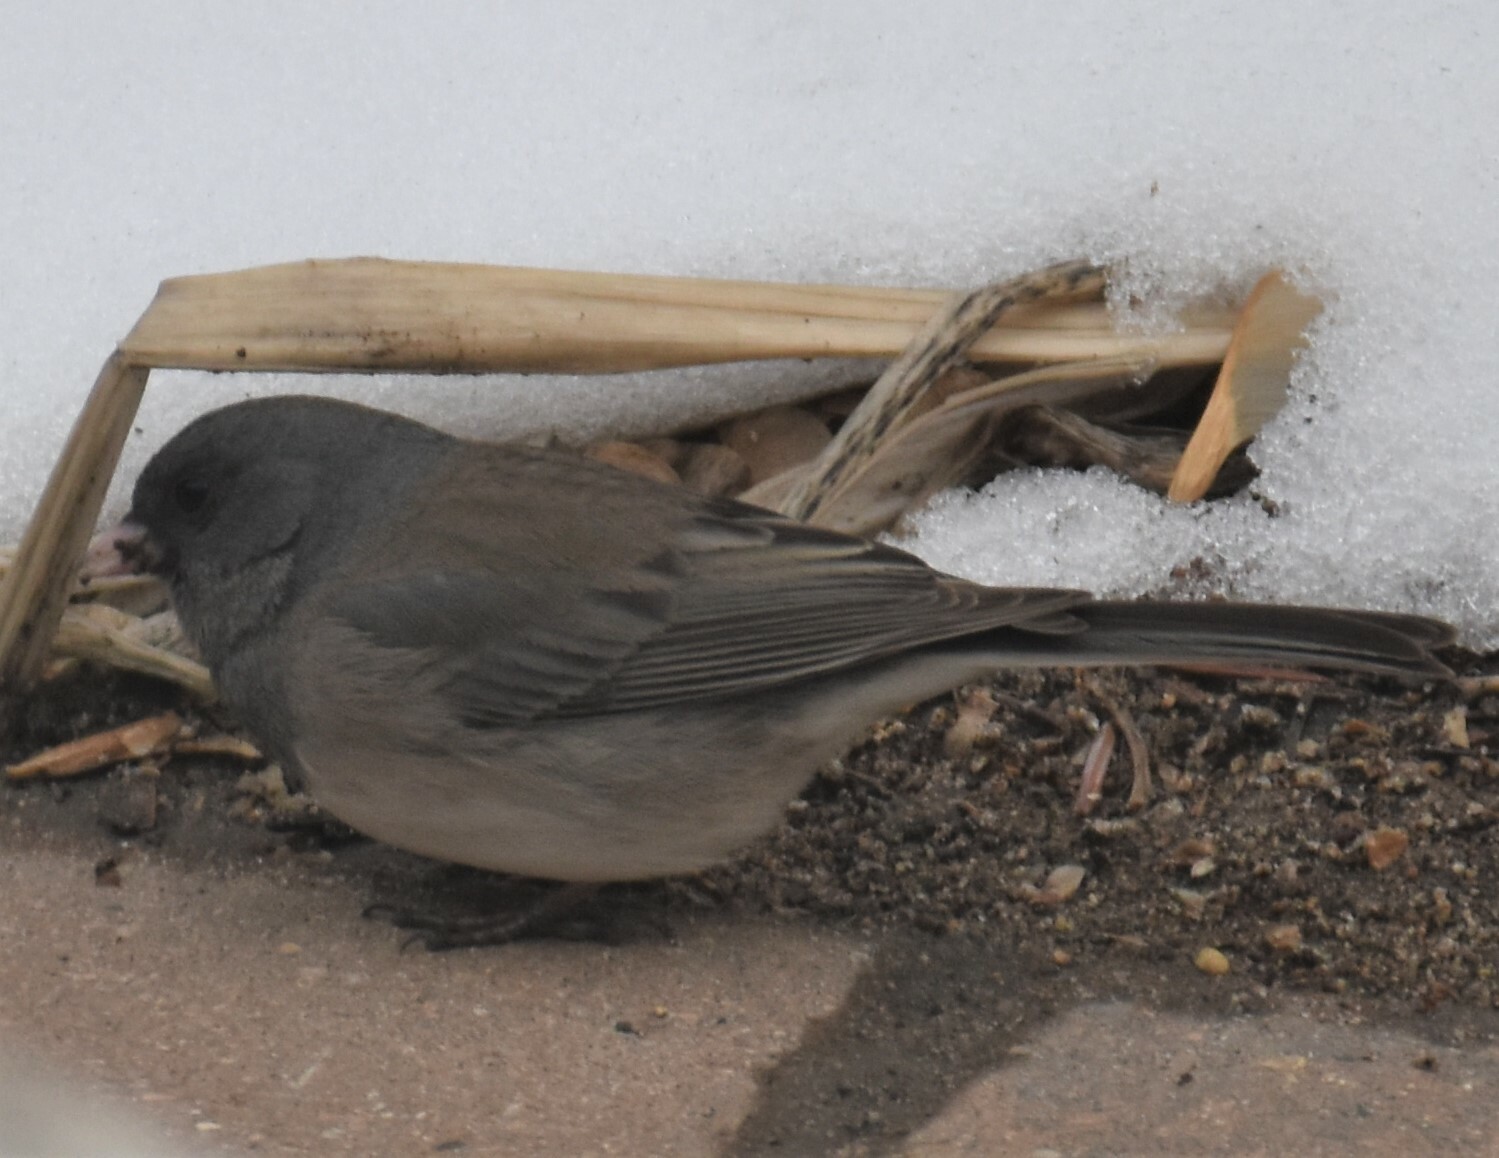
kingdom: Animalia
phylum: Chordata
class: Aves
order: Passeriformes
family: Passerellidae
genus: Junco
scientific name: Junco hyemalis
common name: Dark-eyed junco
